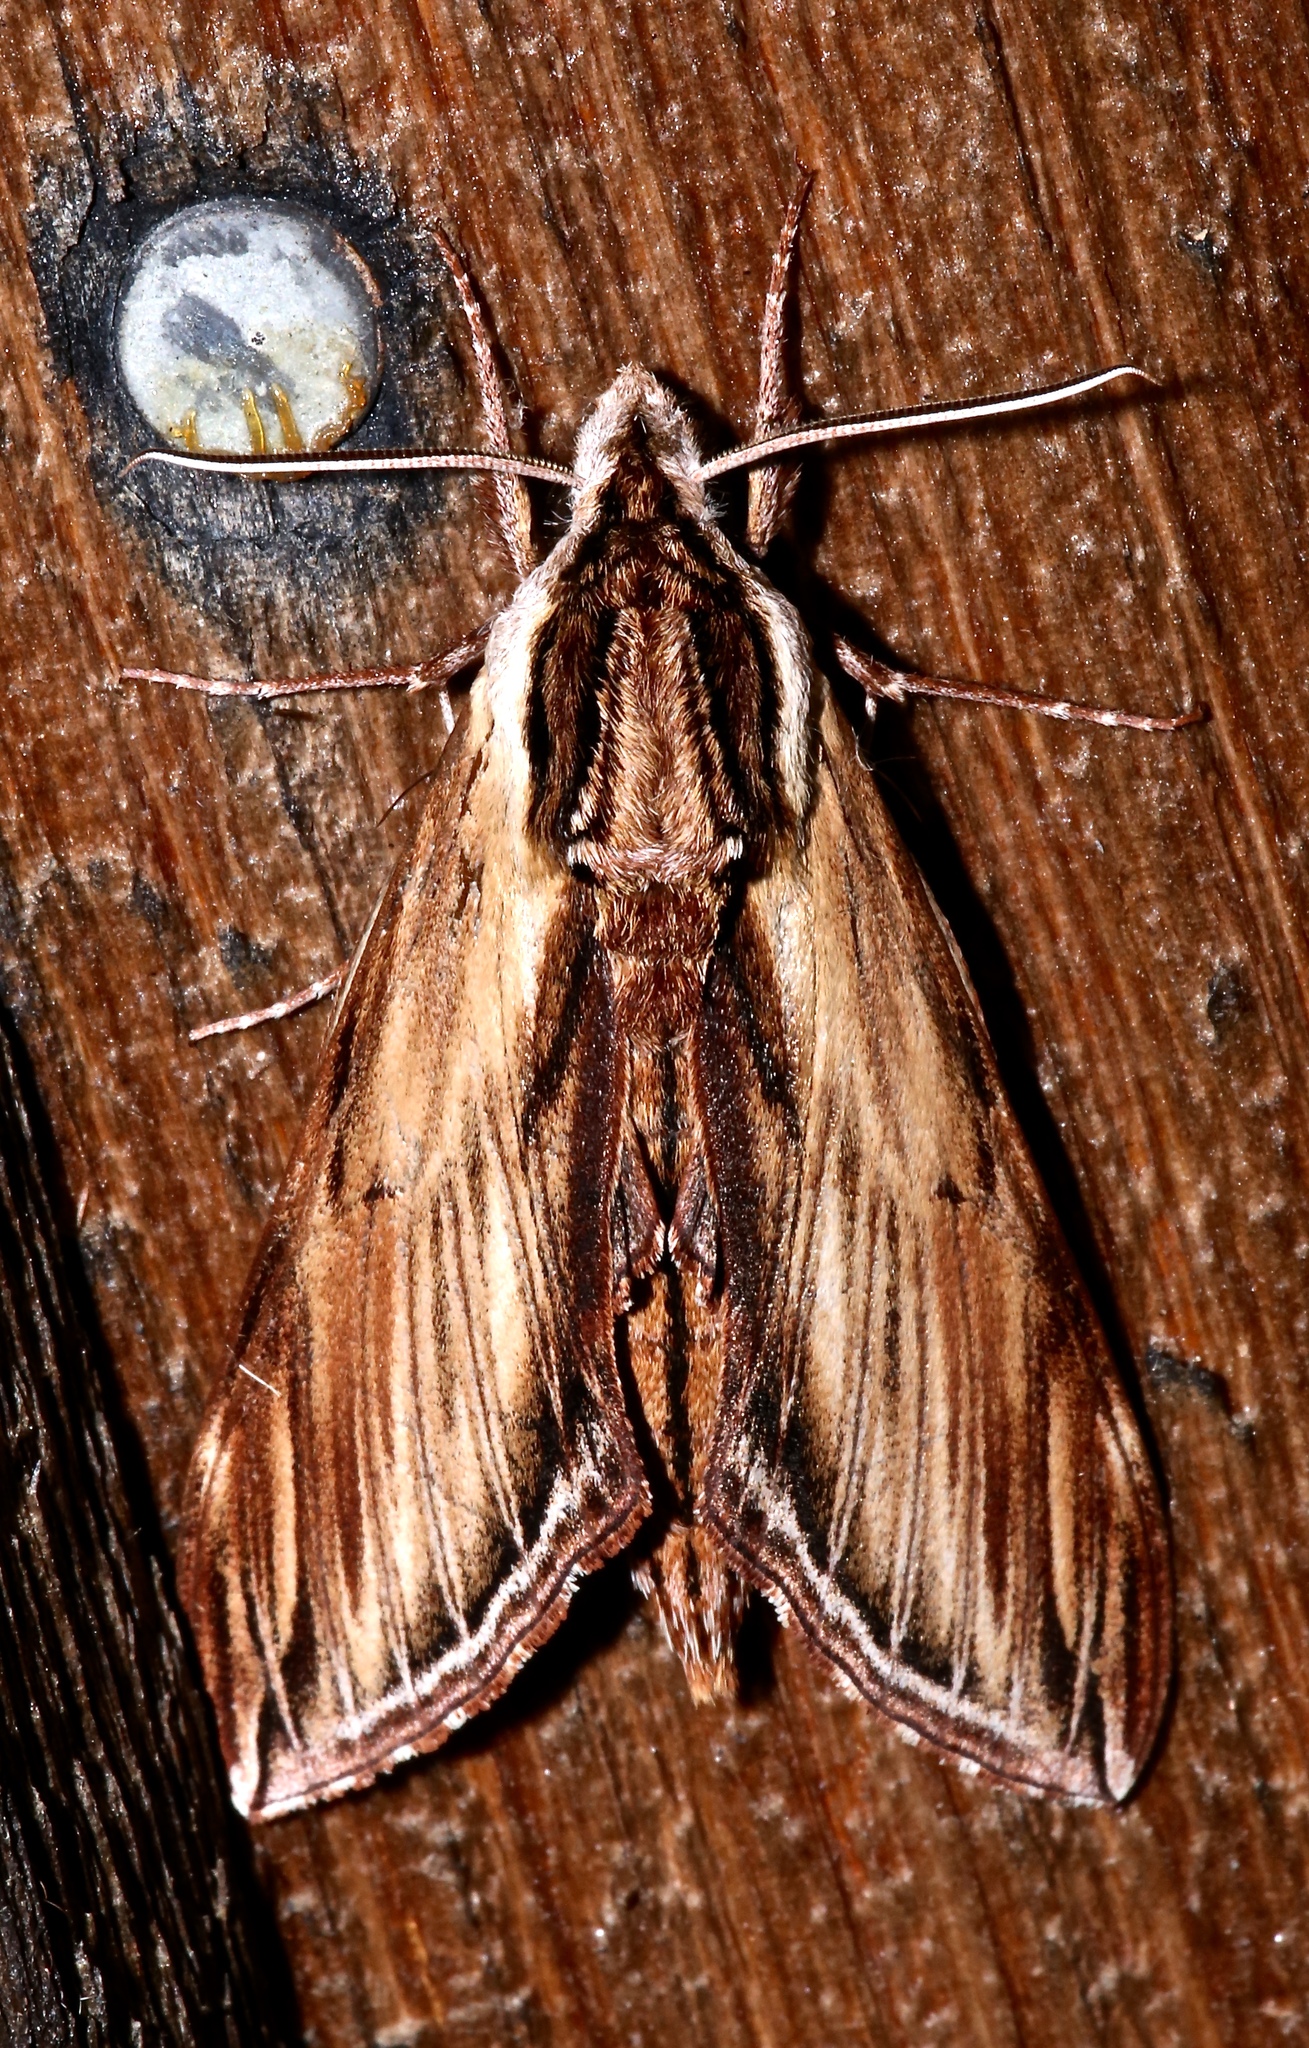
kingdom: Animalia
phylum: Arthropoda
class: Insecta
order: Lepidoptera
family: Sphingidae
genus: Sphinx
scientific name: Sphinx kalmiae
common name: Laurel sphinx
